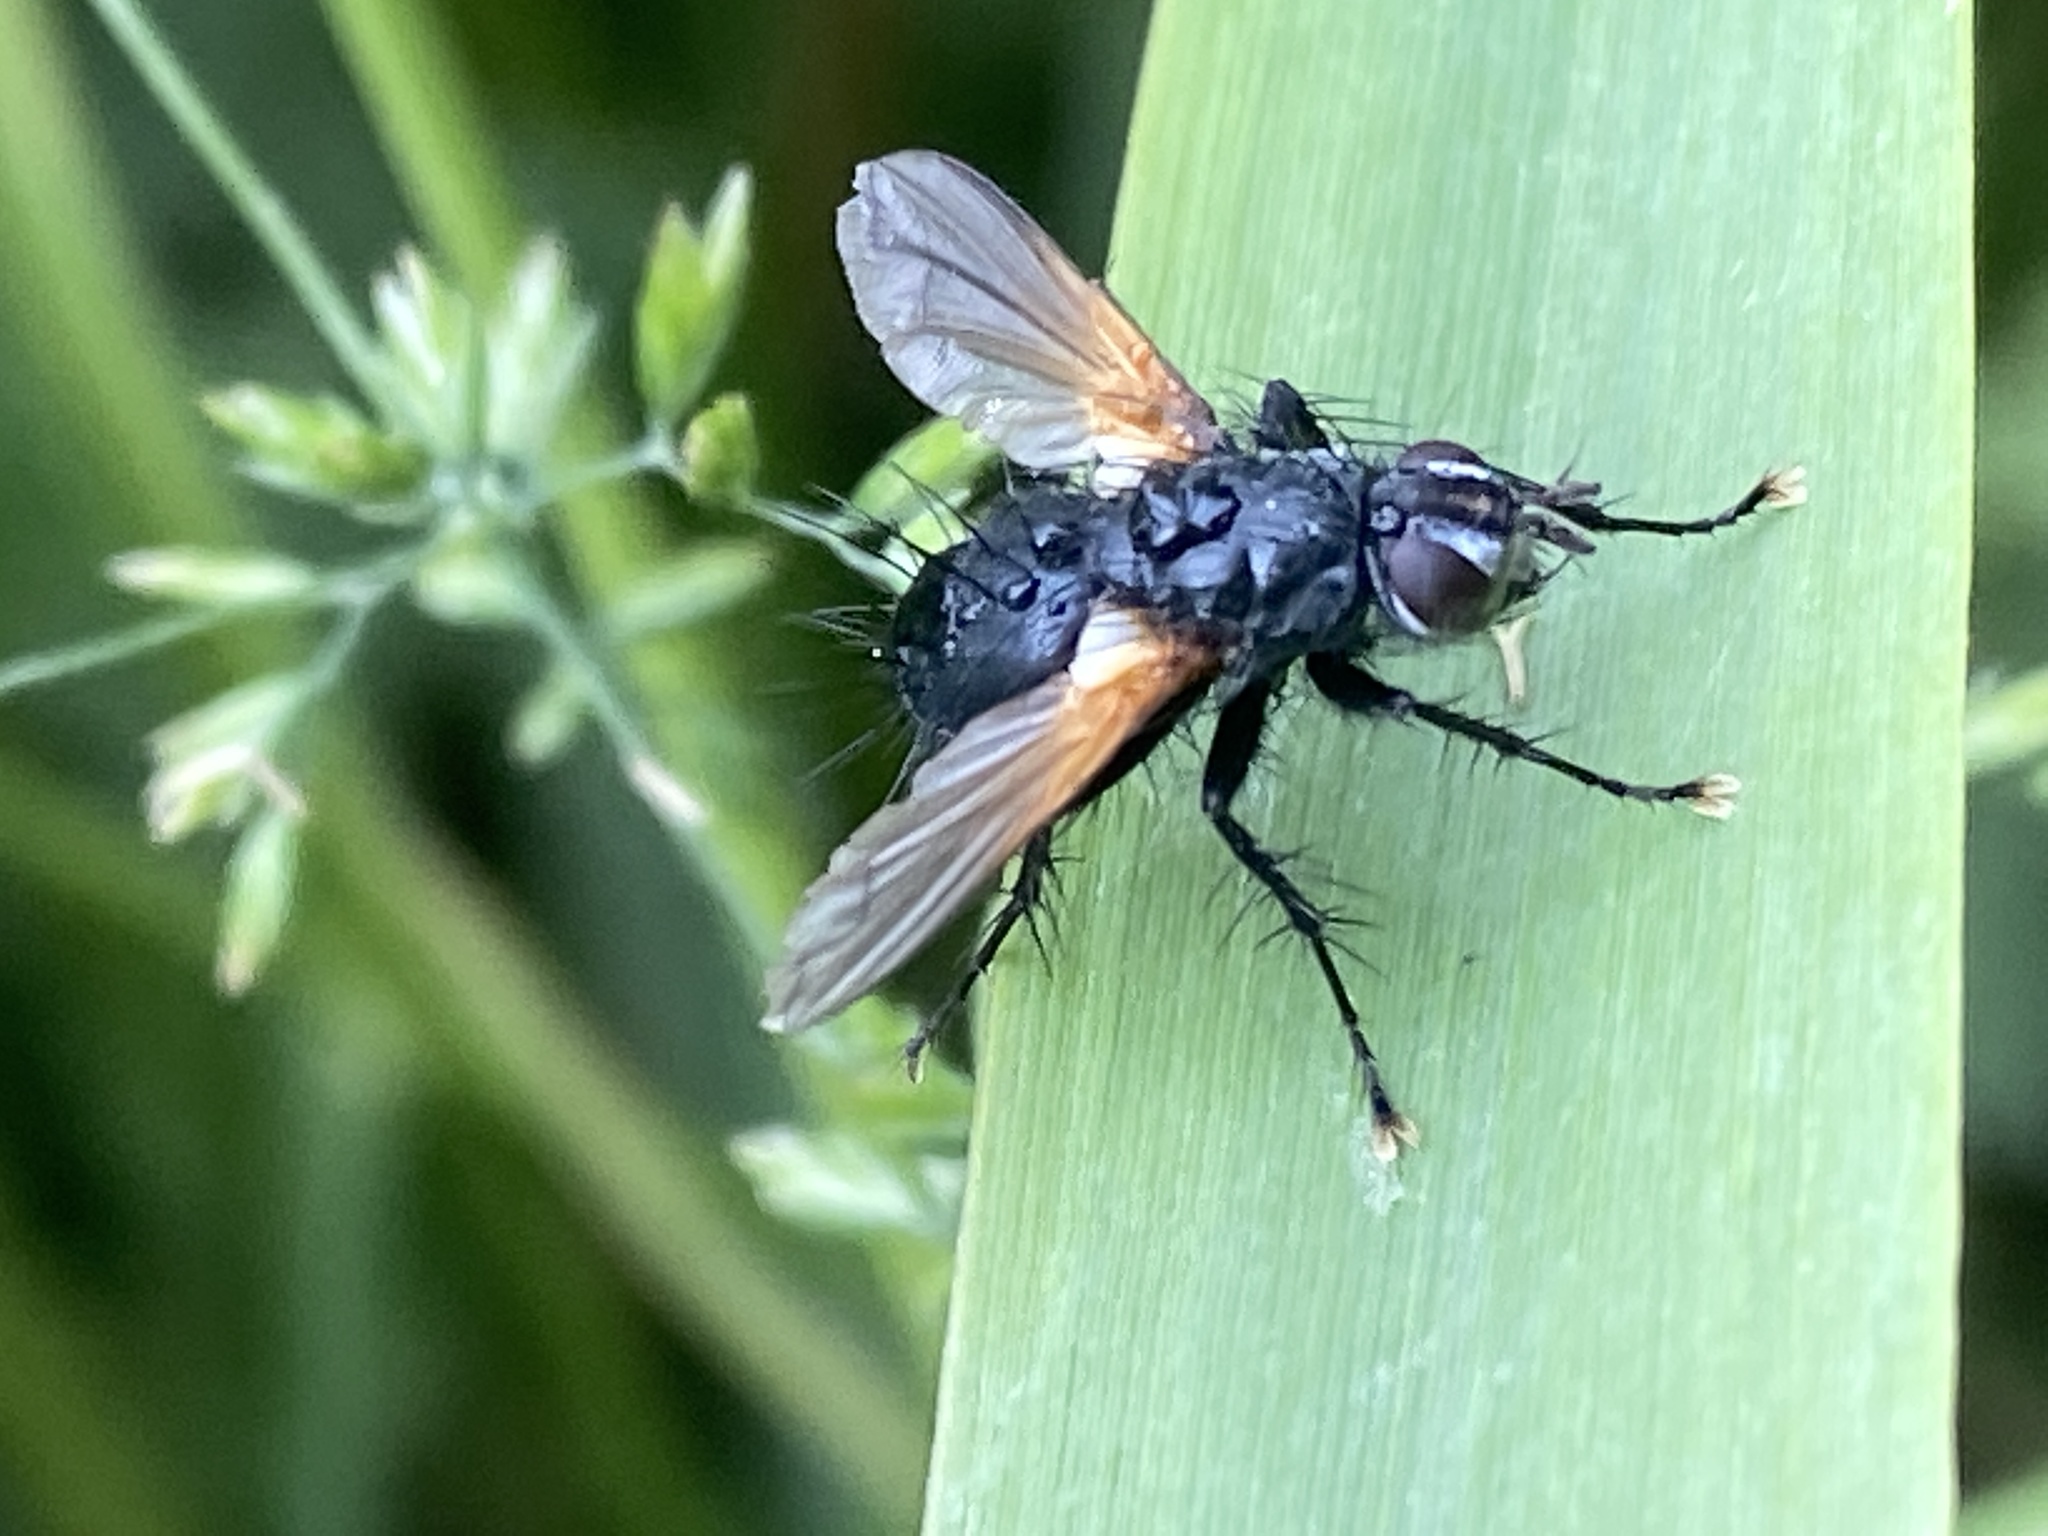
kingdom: Animalia
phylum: Arthropoda
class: Insecta
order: Diptera
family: Tachinidae
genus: Zophomyia
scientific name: Zophomyia temula
